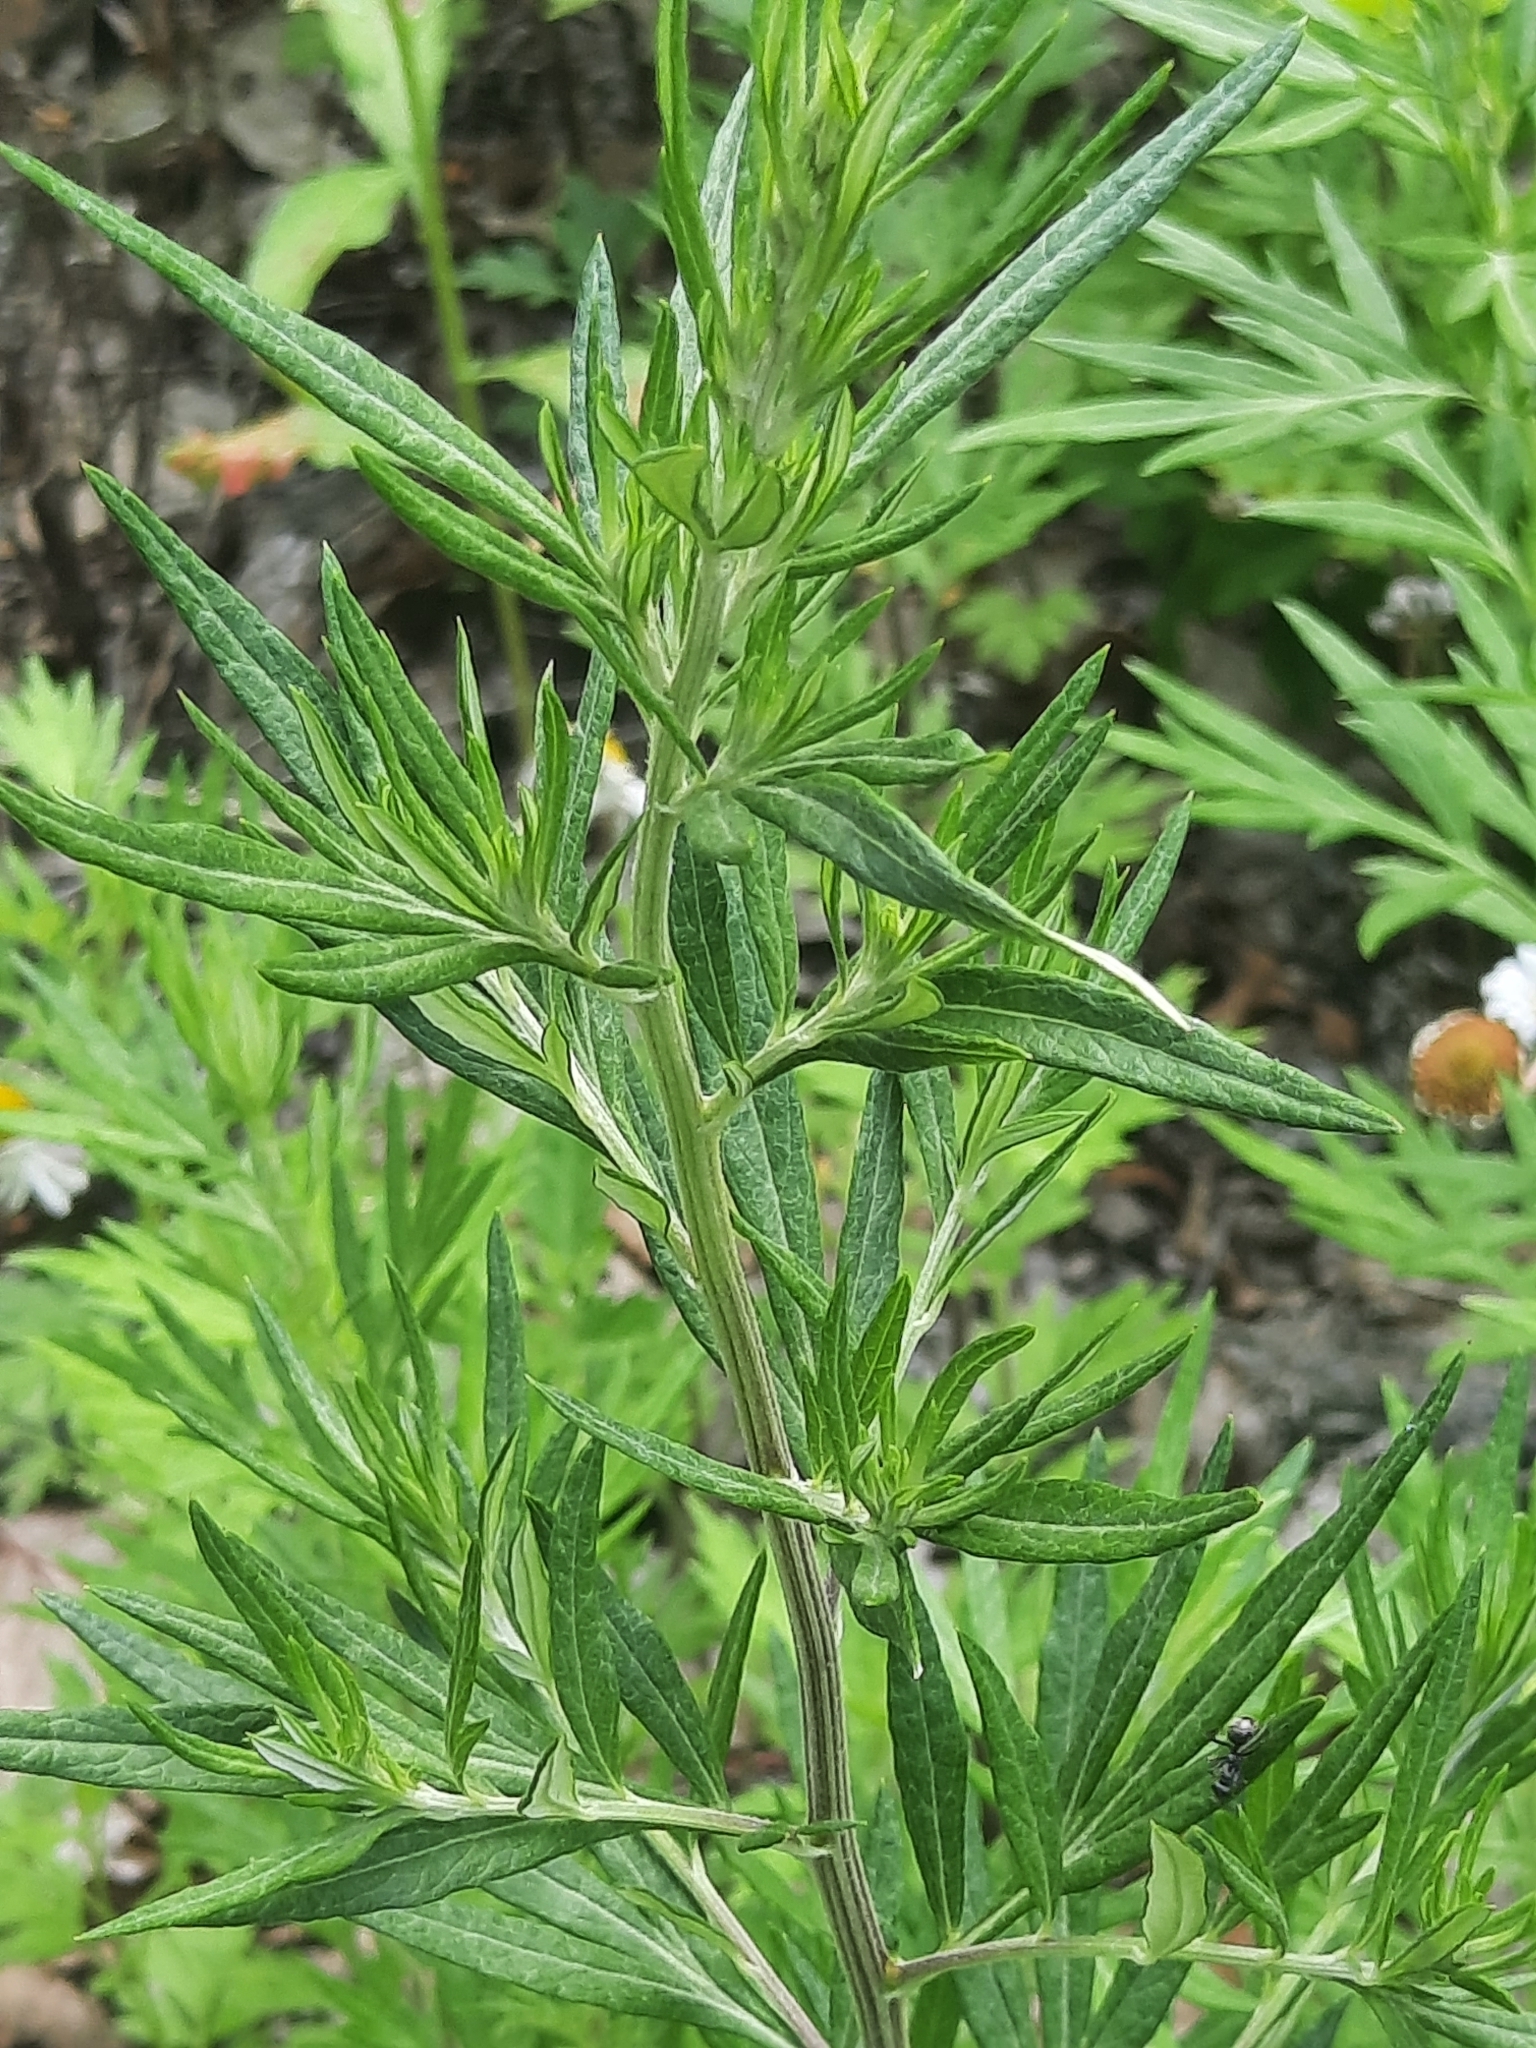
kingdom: Plantae
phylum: Tracheophyta
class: Magnoliopsida
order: Asterales
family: Asteraceae
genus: Artemisia
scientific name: Artemisia vulgaris
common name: Mugwort
